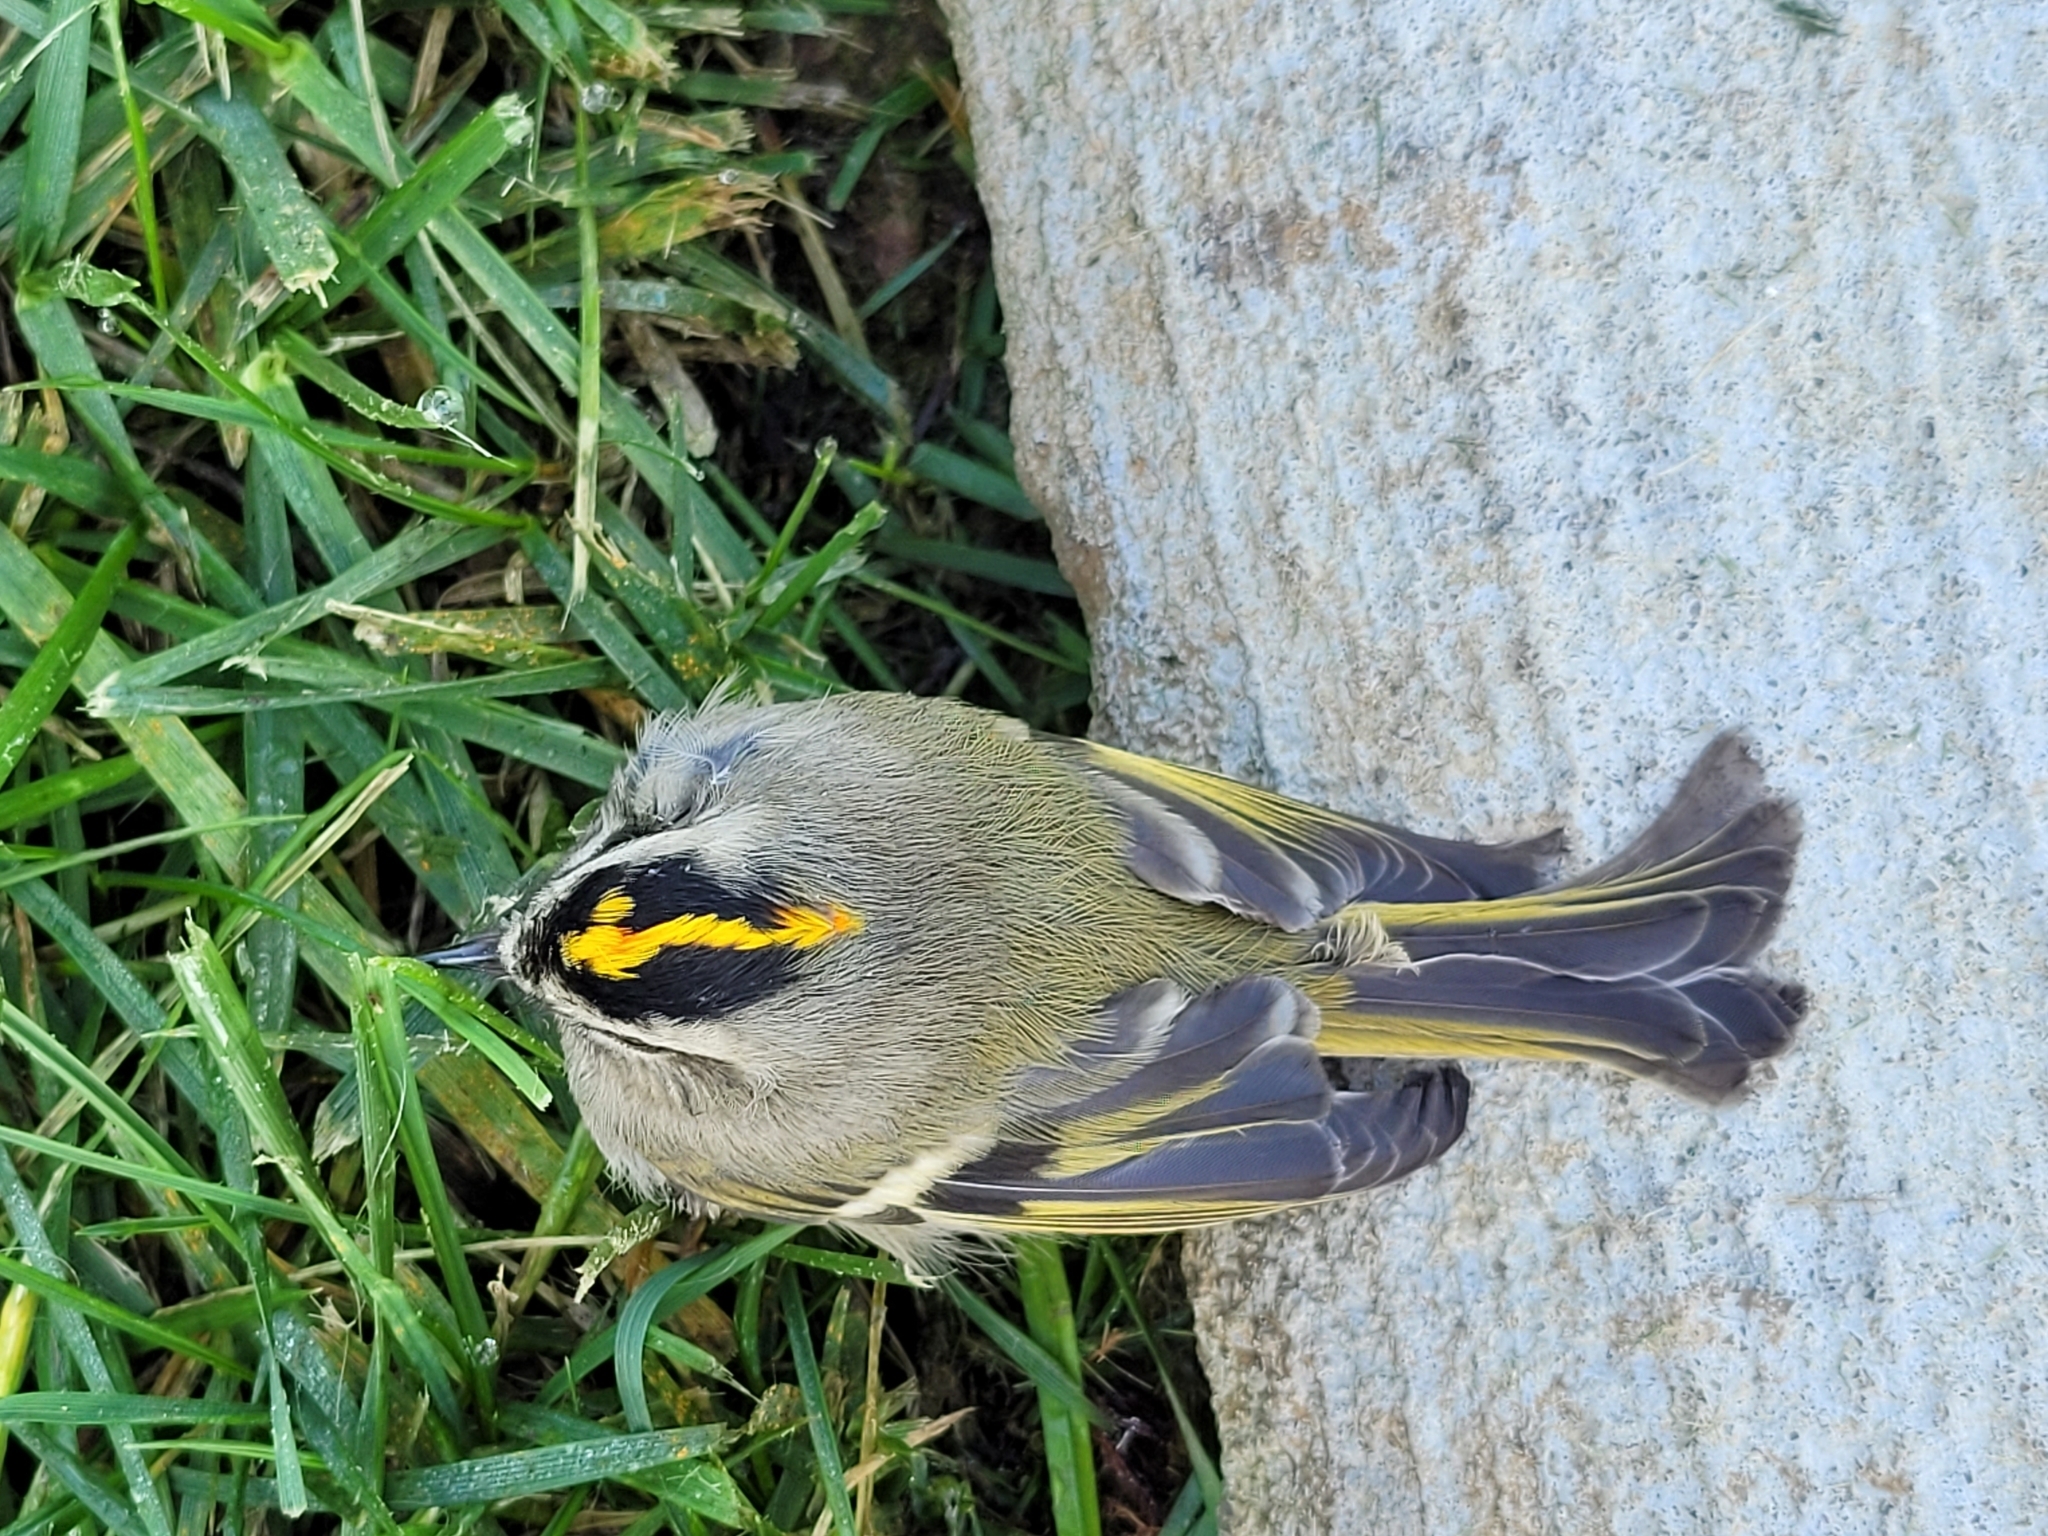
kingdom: Animalia
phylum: Chordata
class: Aves
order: Passeriformes
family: Regulidae
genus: Regulus
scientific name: Regulus satrapa
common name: Golden-crowned kinglet
